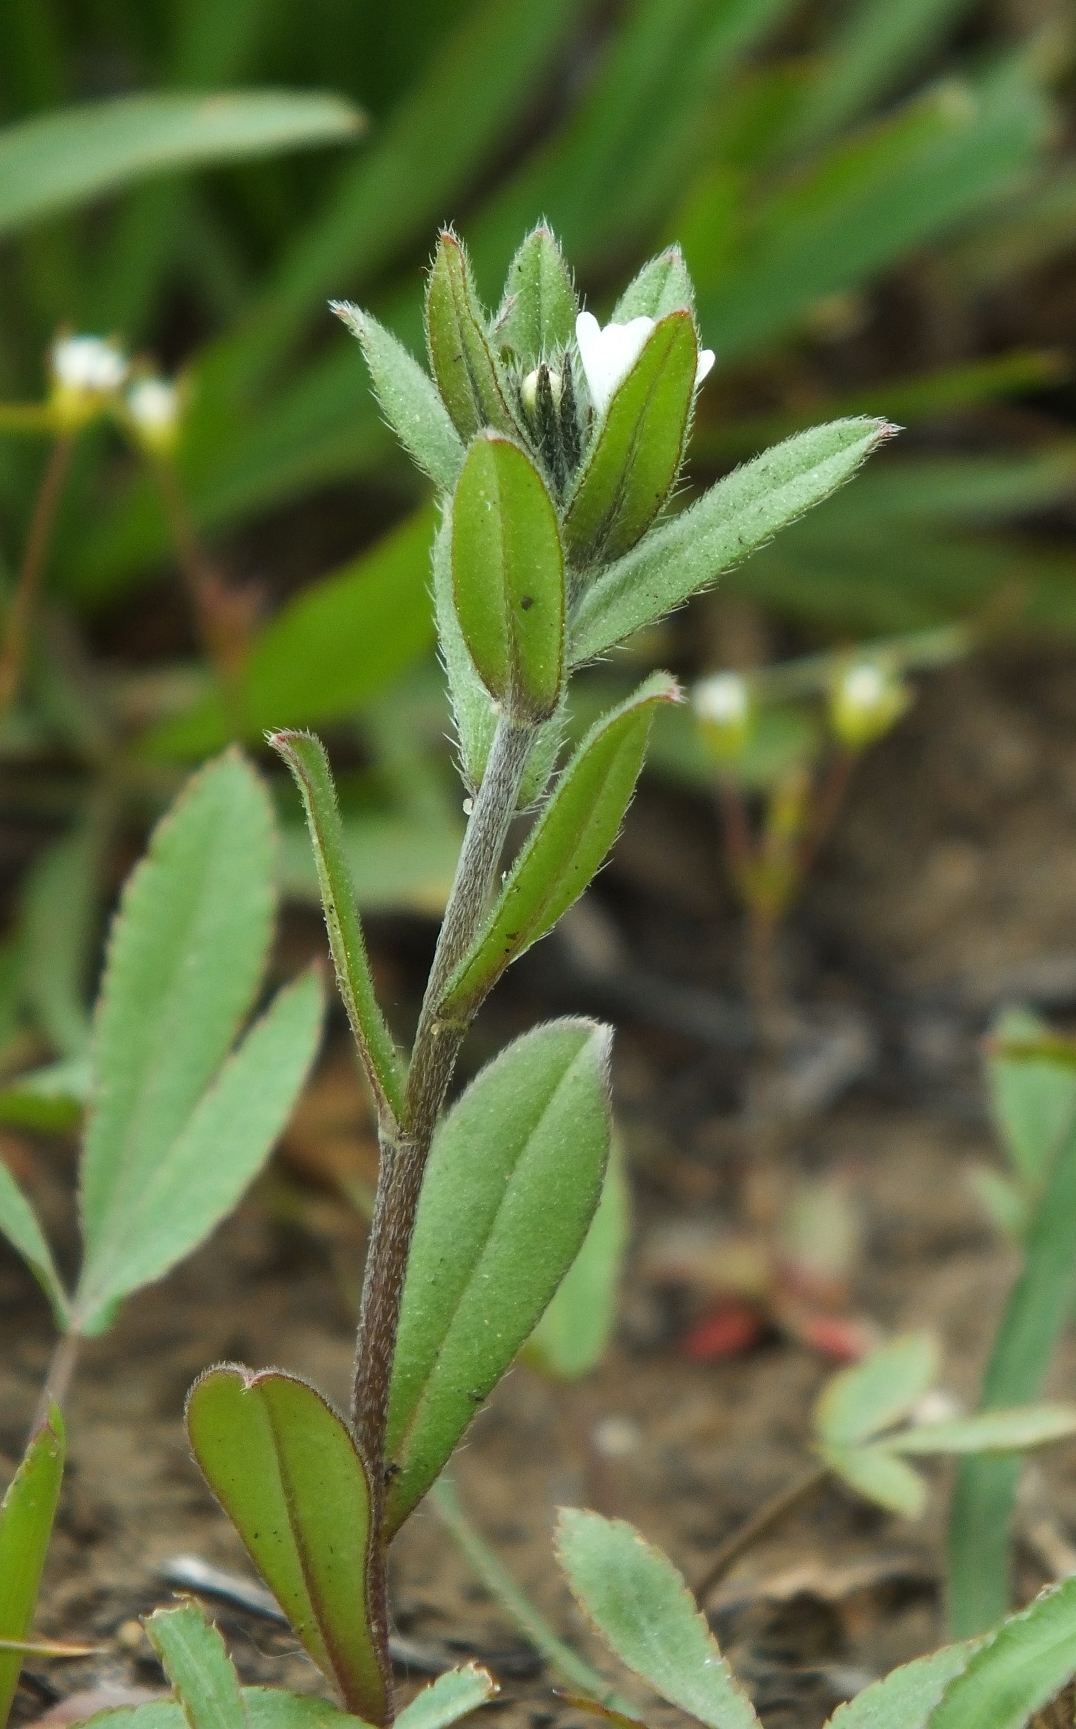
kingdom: Plantae
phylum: Tracheophyta
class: Magnoliopsida
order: Boraginales
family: Boraginaceae
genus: Buglossoides
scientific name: Buglossoides arvensis
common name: Corn gromwell
